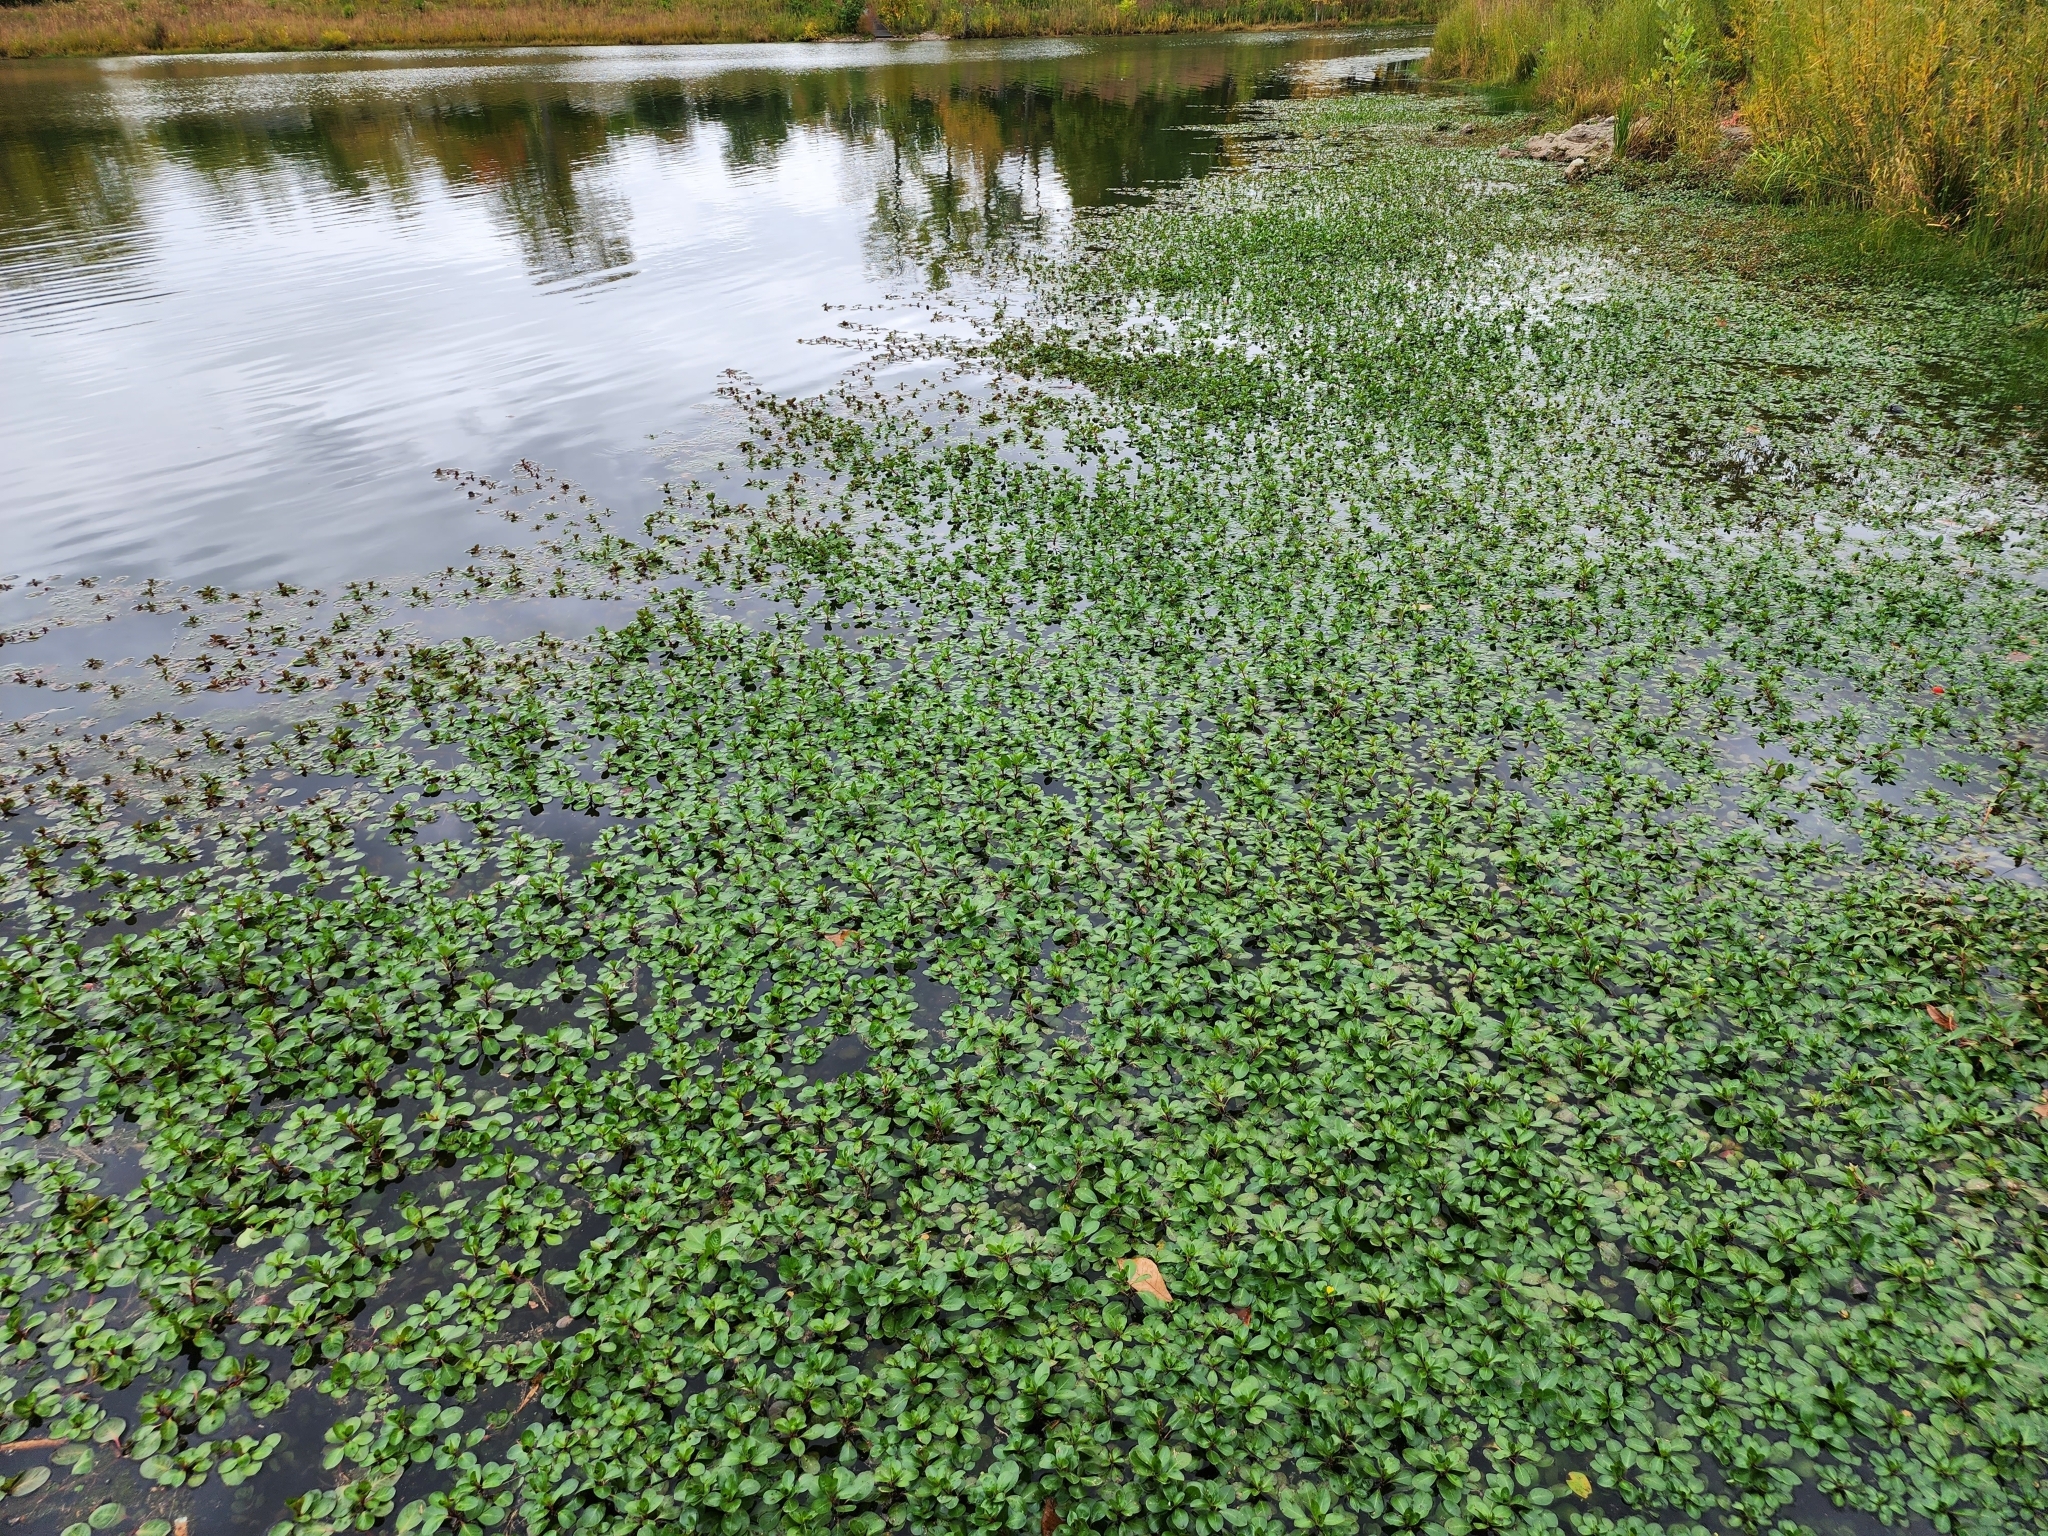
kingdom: Plantae
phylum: Tracheophyta
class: Magnoliopsida
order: Myrtales
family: Onagraceae
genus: Ludwigia
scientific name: Ludwigia peploides
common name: Floating primrose-willow
